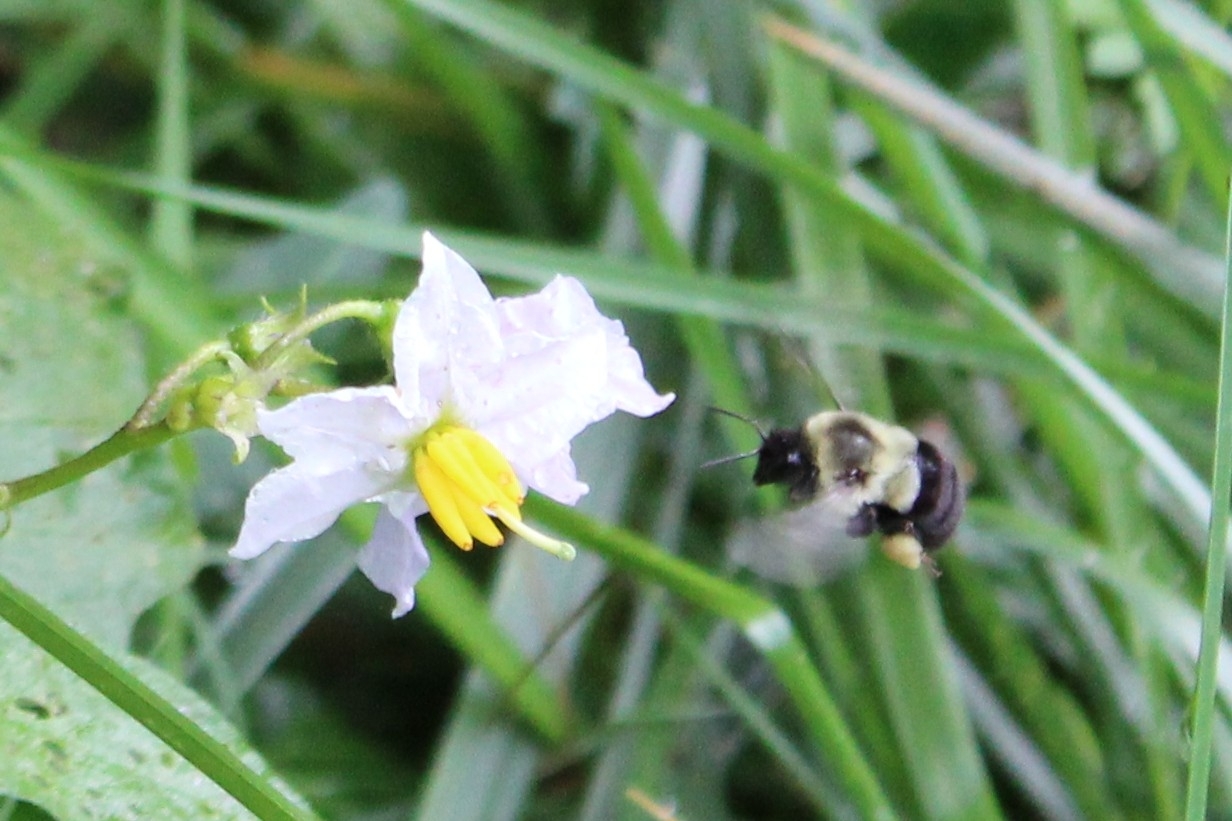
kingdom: Animalia
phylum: Arthropoda
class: Insecta
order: Hymenoptera
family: Apidae
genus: Bombus
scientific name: Bombus impatiens
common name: Common eastern bumble bee
